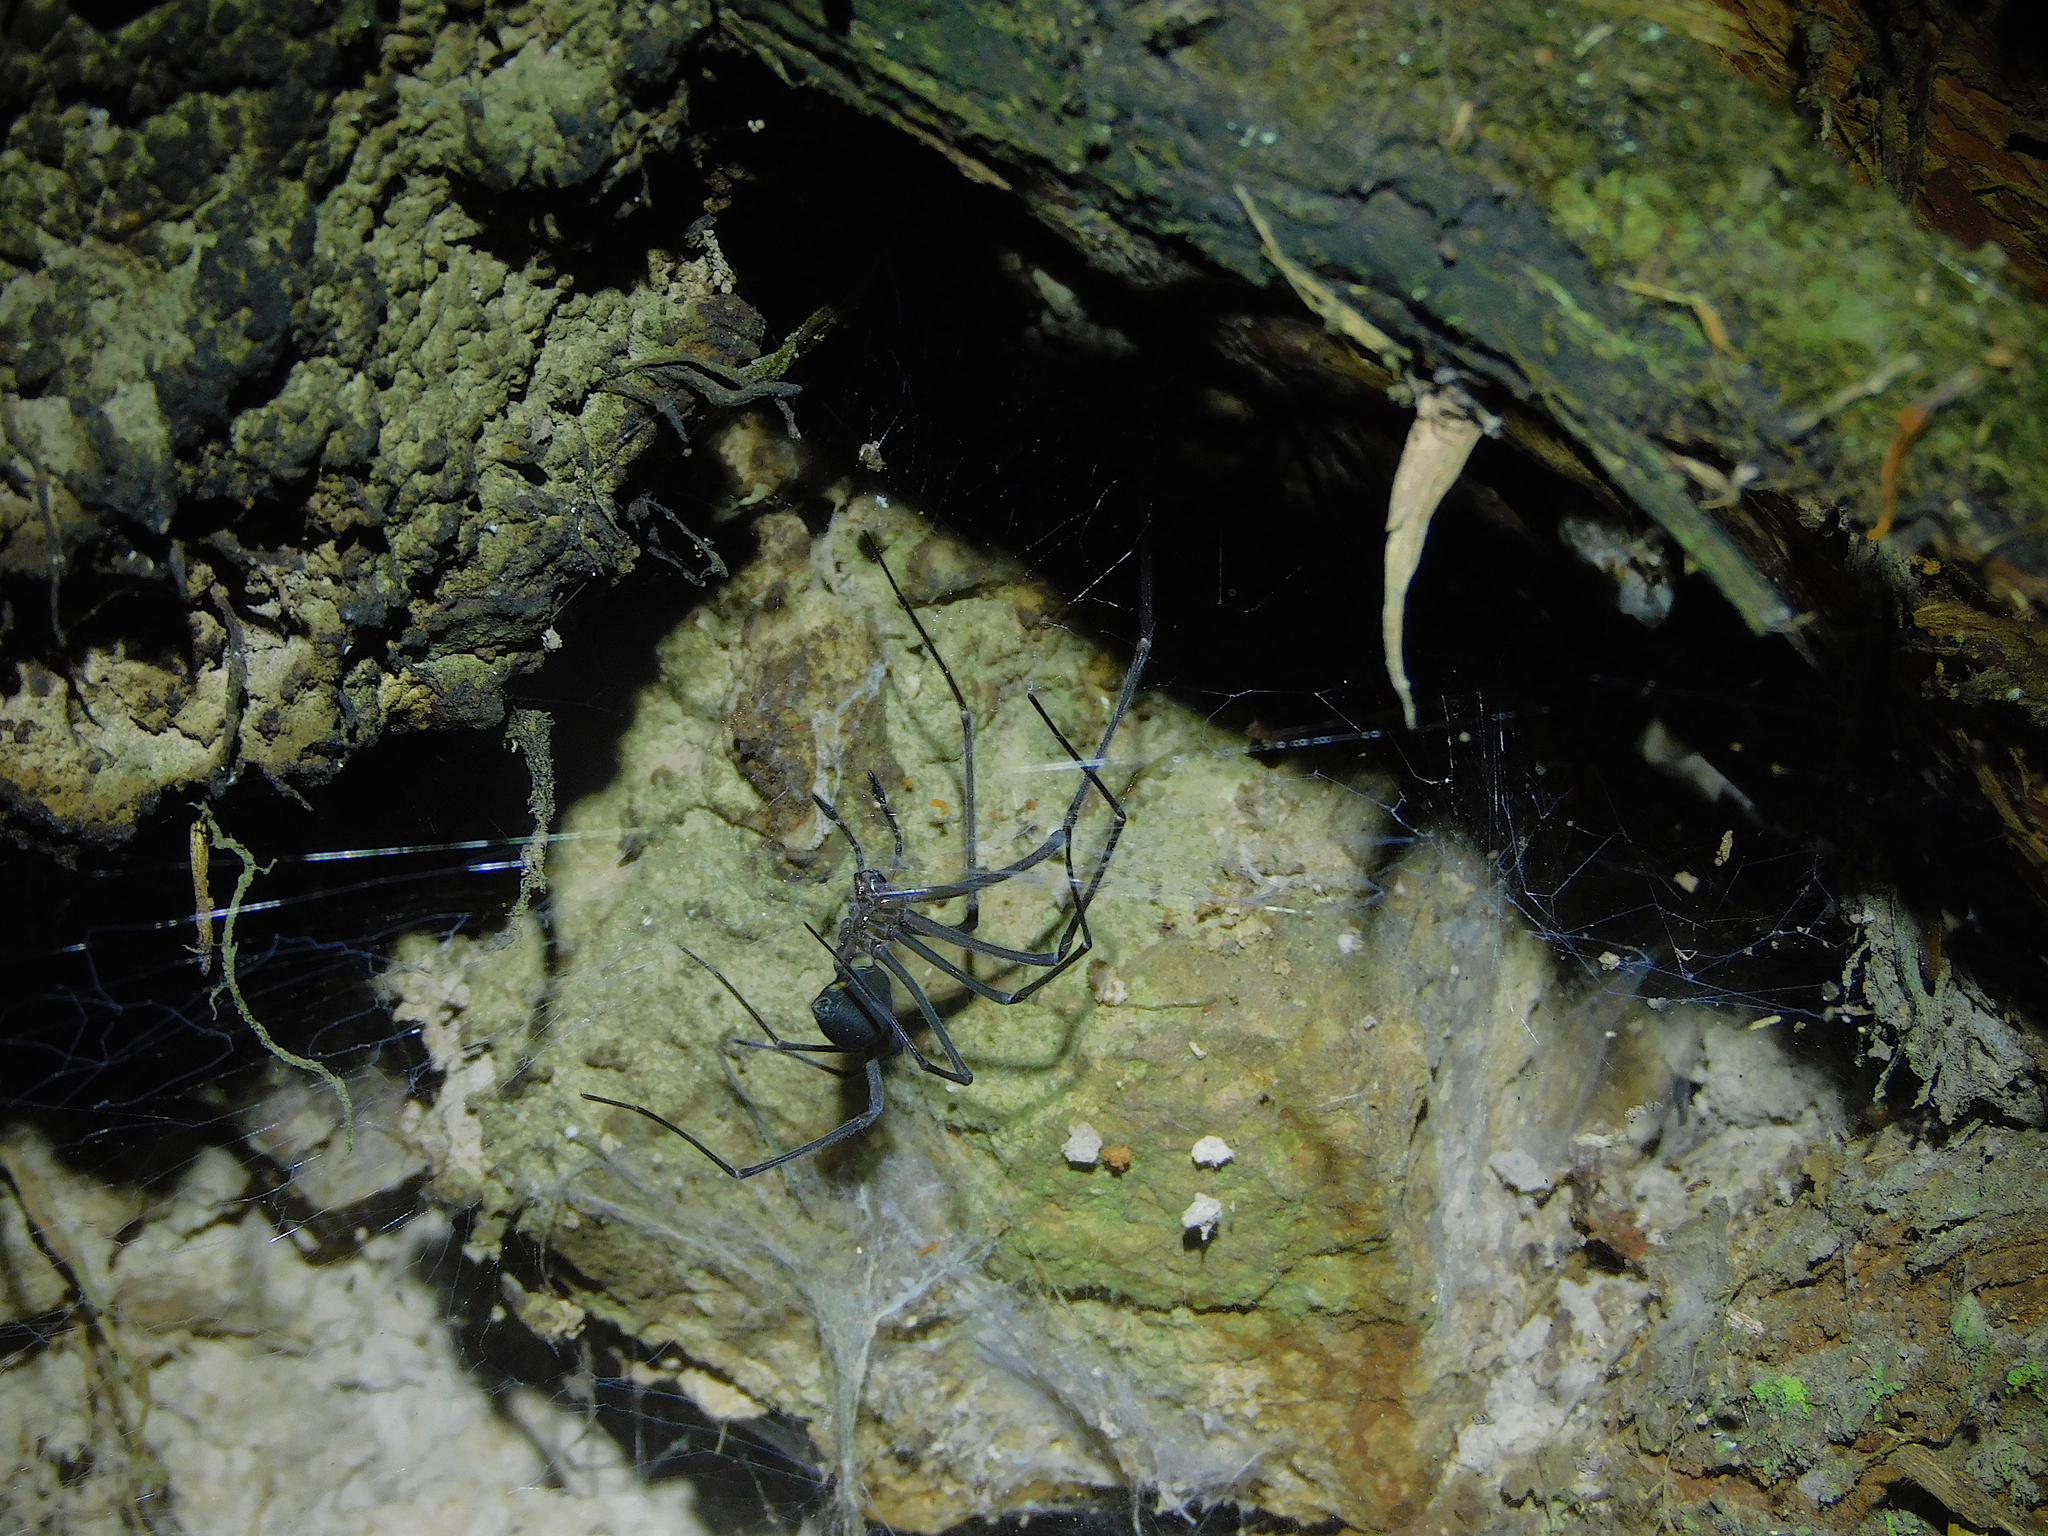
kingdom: Animalia
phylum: Arthropoda
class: Arachnida
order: Araneae
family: Gradungulidae
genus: Hickmania
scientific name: Hickmania troglodytes
